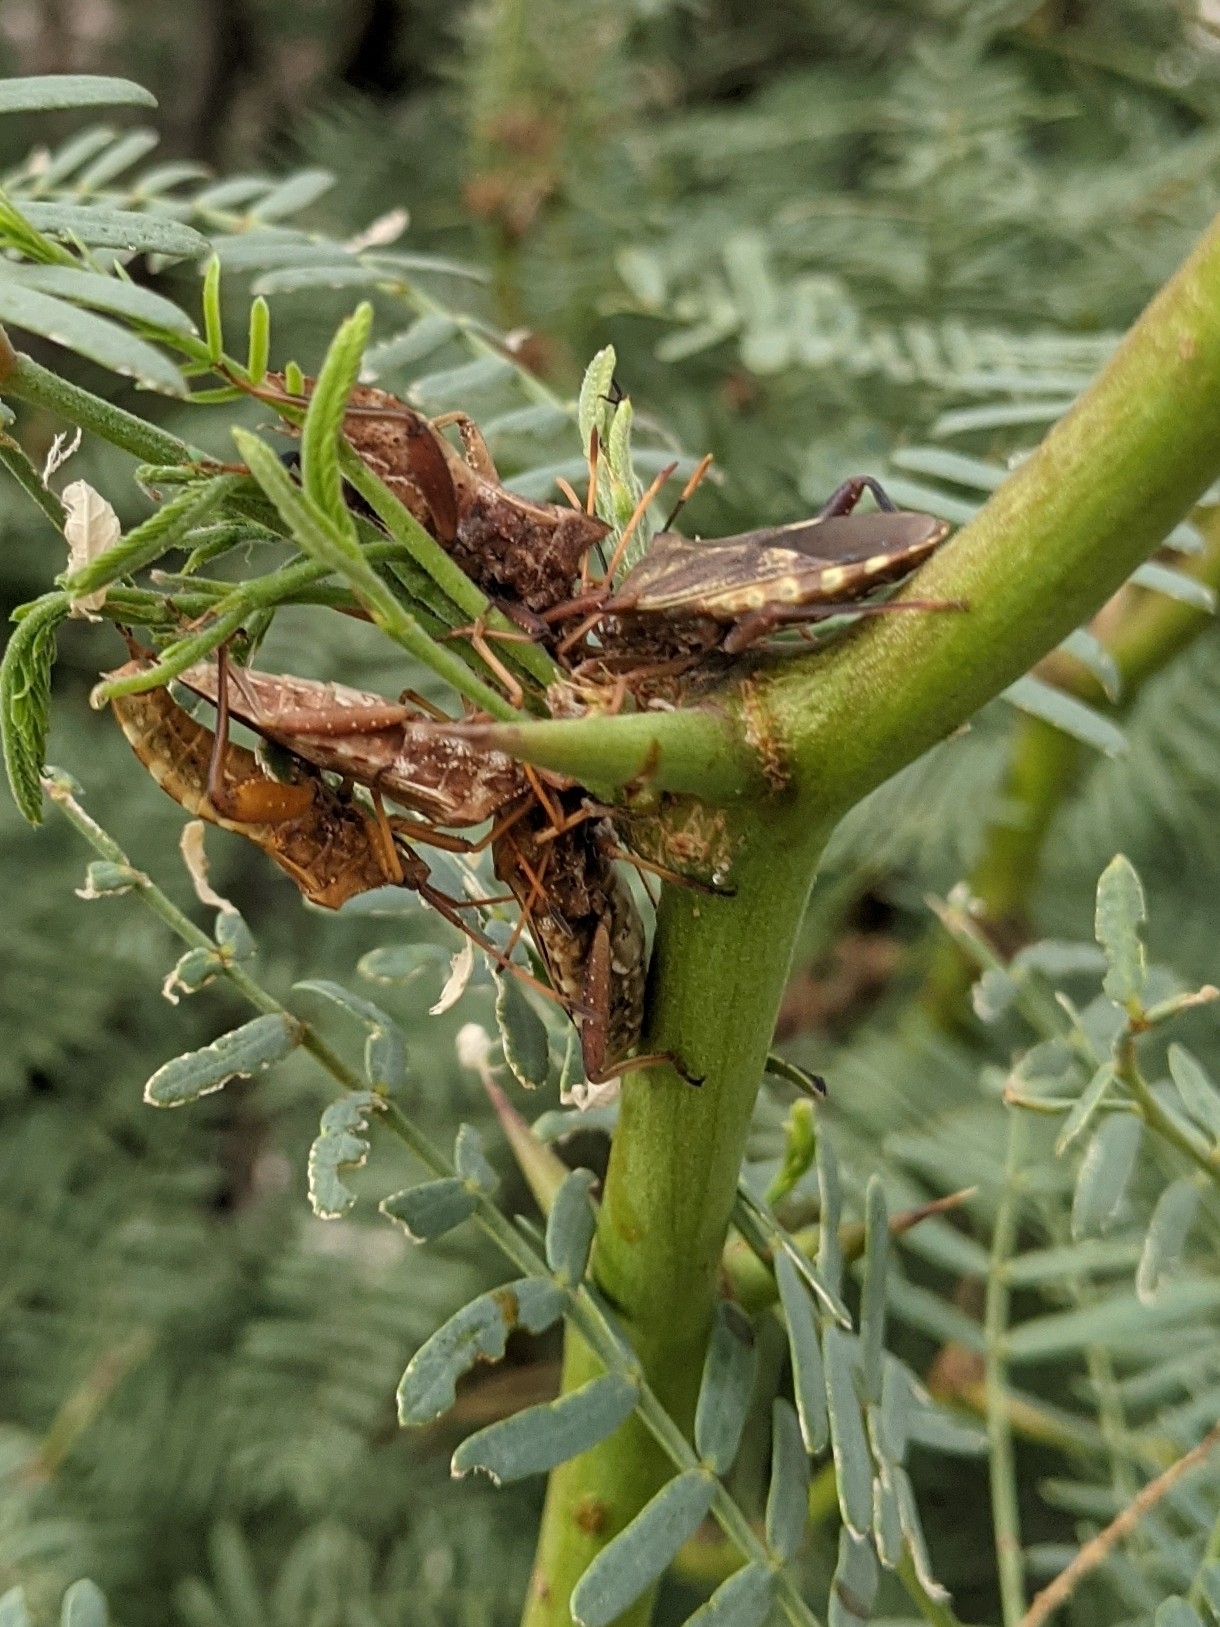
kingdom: Animalia
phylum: Arthropoda
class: Insecta
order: Hemiptera
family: Coreidae
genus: Mozena
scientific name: Mozena lunata
